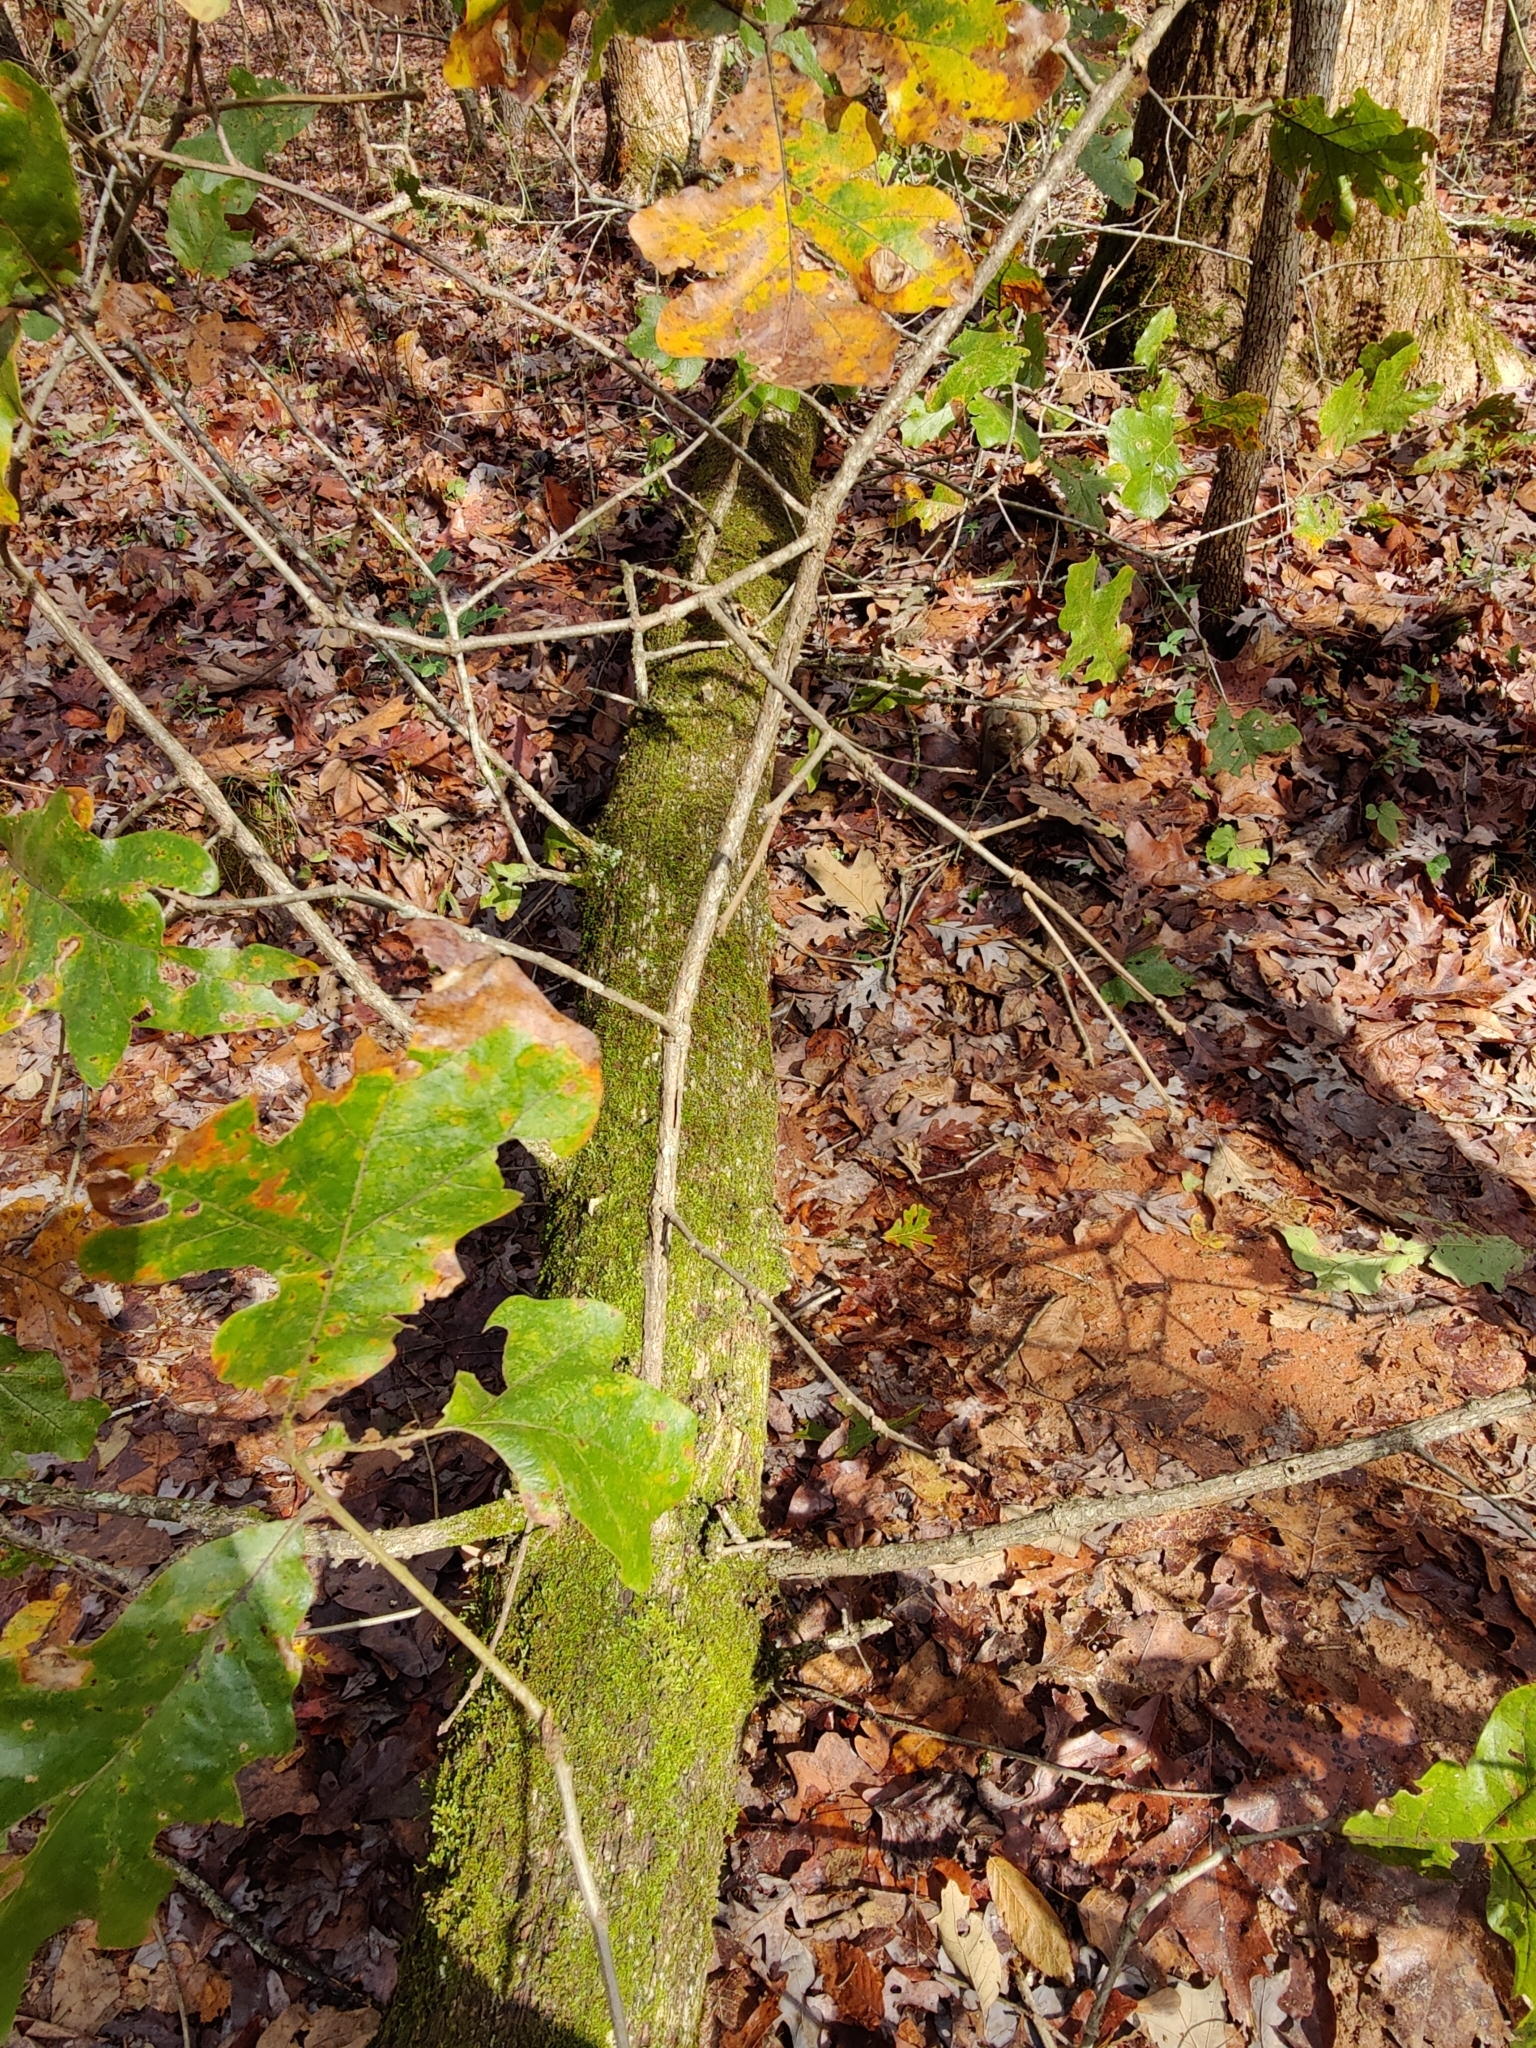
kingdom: Plantae
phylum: Tracheophyta
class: Magnoliopsida
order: Fagales
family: Fagaceae
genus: Quercus
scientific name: Quercus stellata
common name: Post oak
